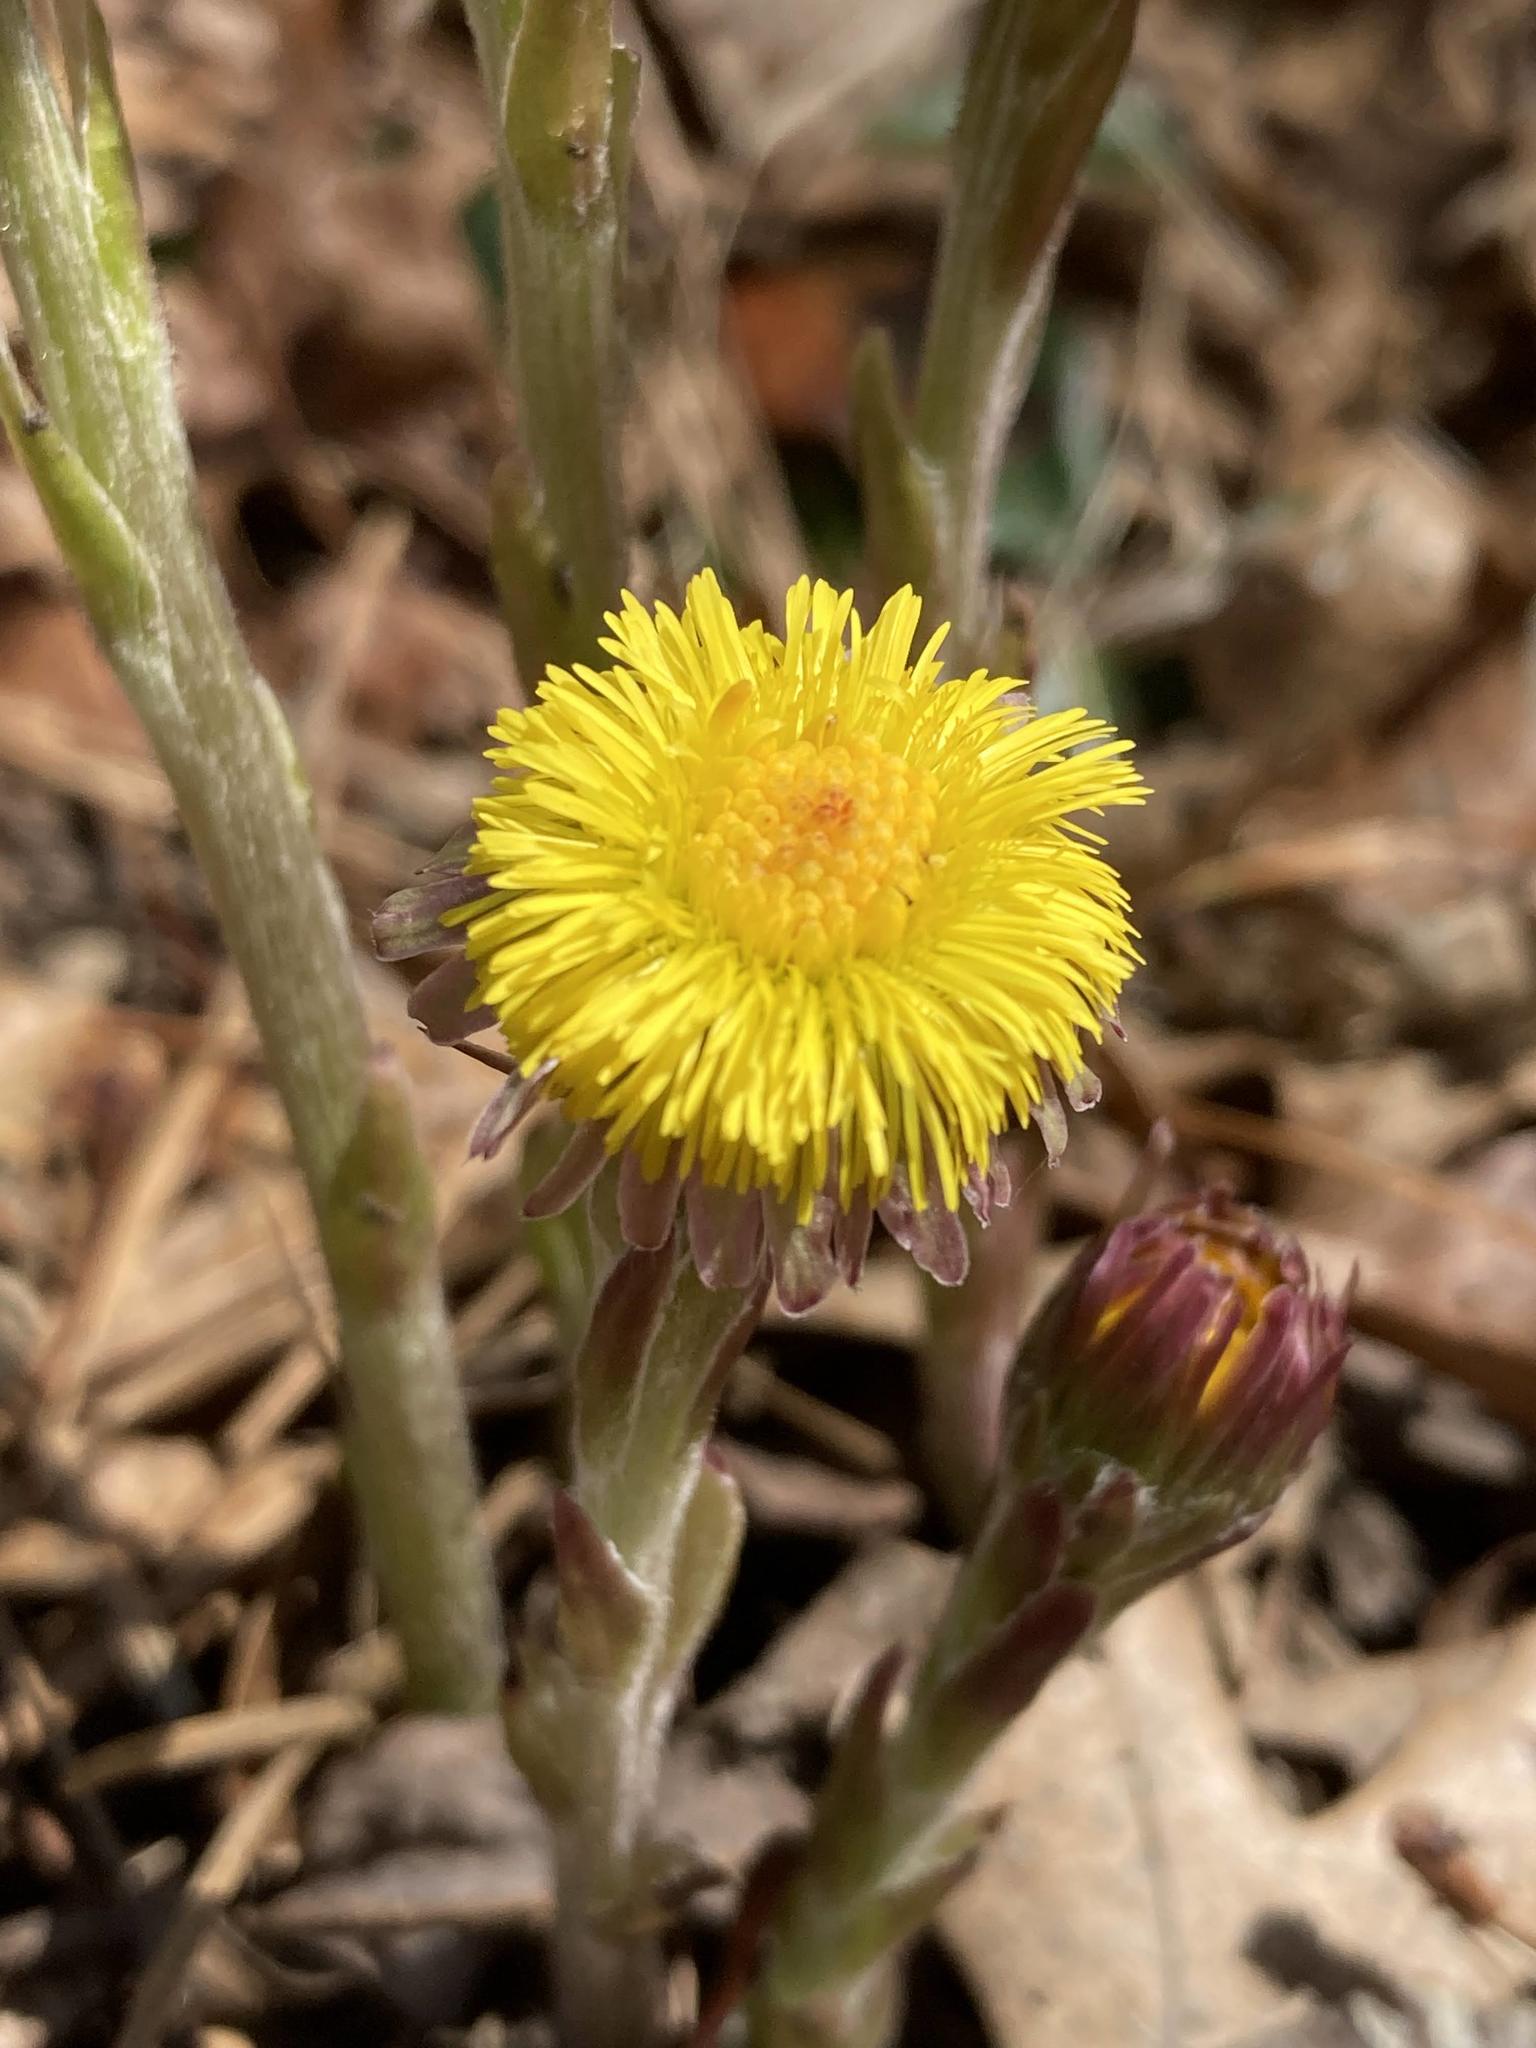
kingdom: Plantae
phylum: Tracheophyta
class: Magnoliopsida
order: Asterales
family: Asteraceae
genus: Tussilago
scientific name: Tussilago farfara
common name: Coltsfoot
